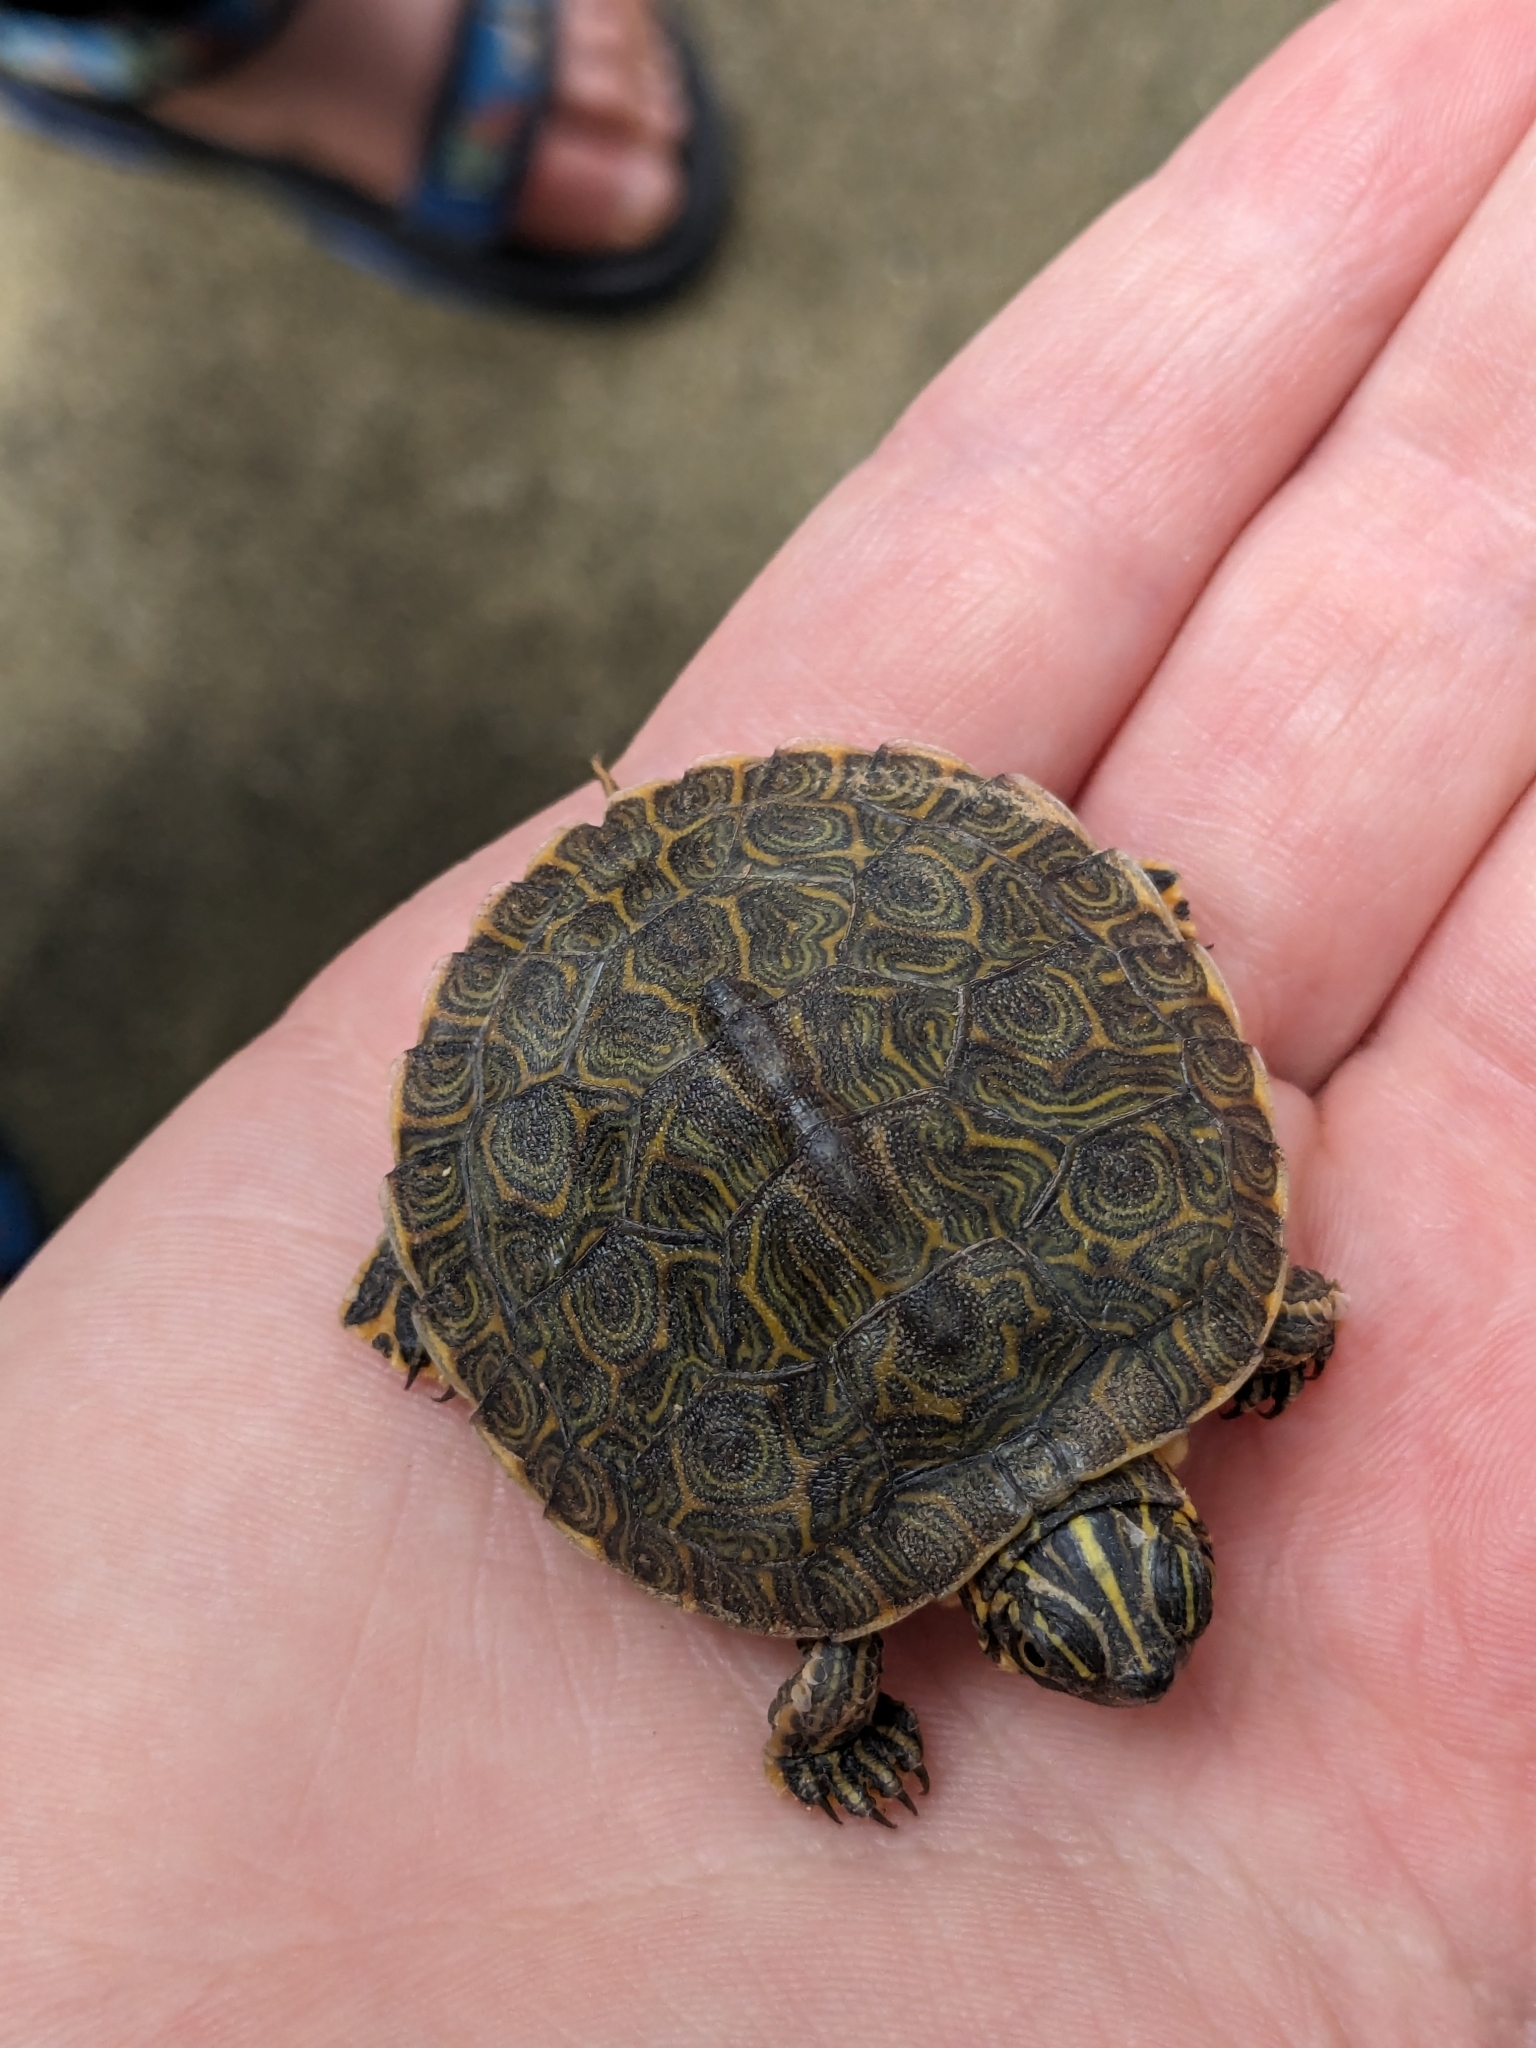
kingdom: Animalia
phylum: Chordata
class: Testudines
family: Emydidae
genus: Pseudemys
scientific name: Pseudemys concinna
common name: Eastern river cooter
